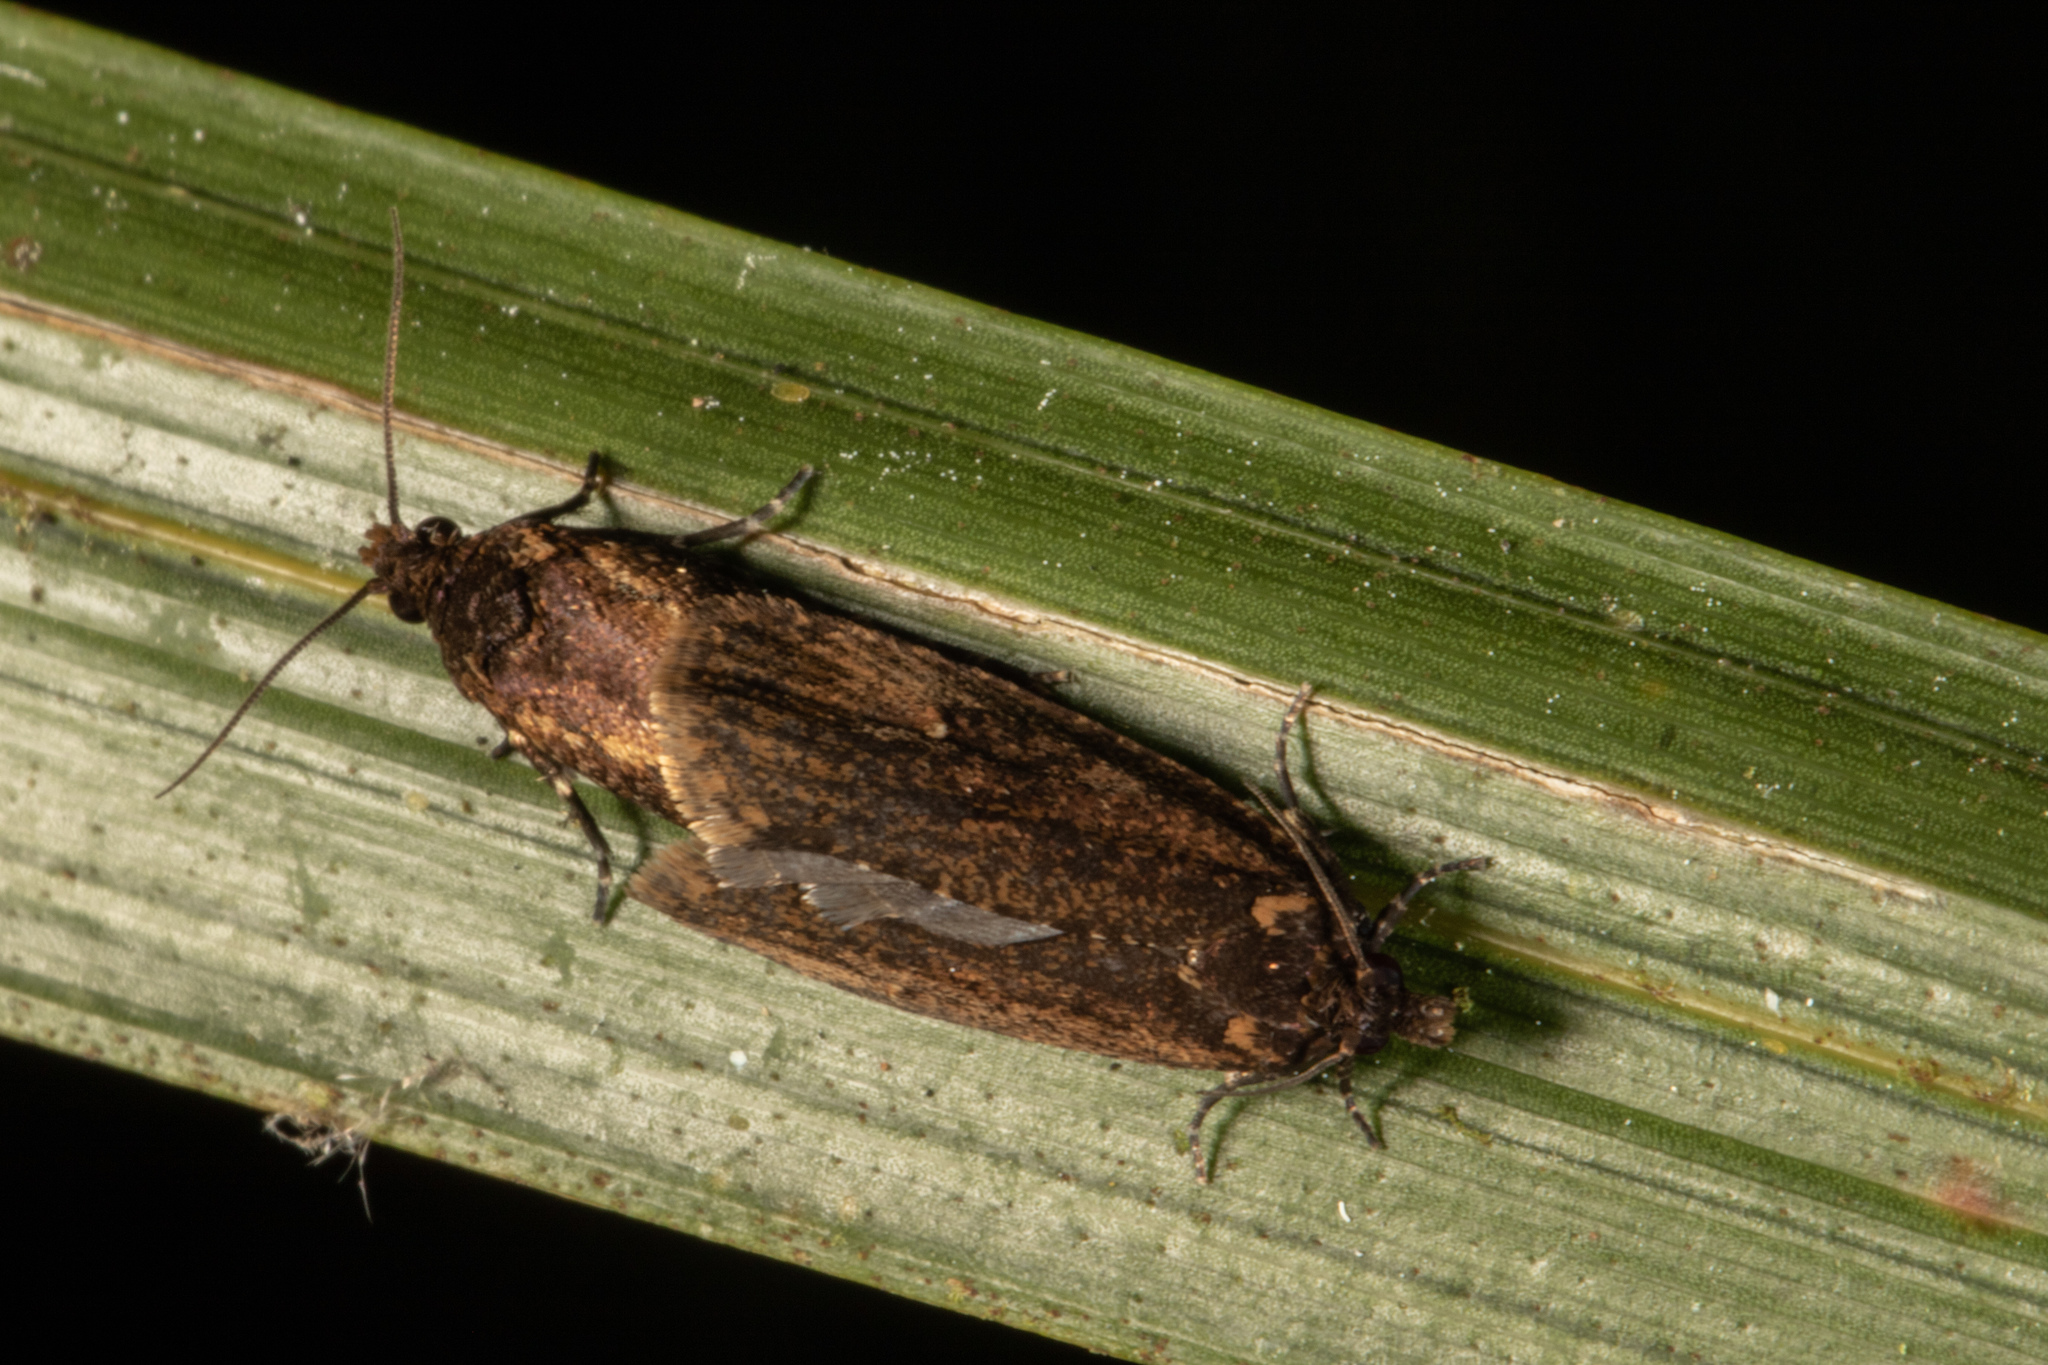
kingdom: Animalia
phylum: Arthropoda
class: Insecta
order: Lepidoptera
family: Tortricidae
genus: Cryptaspasma
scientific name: Cryptaspasma querula
